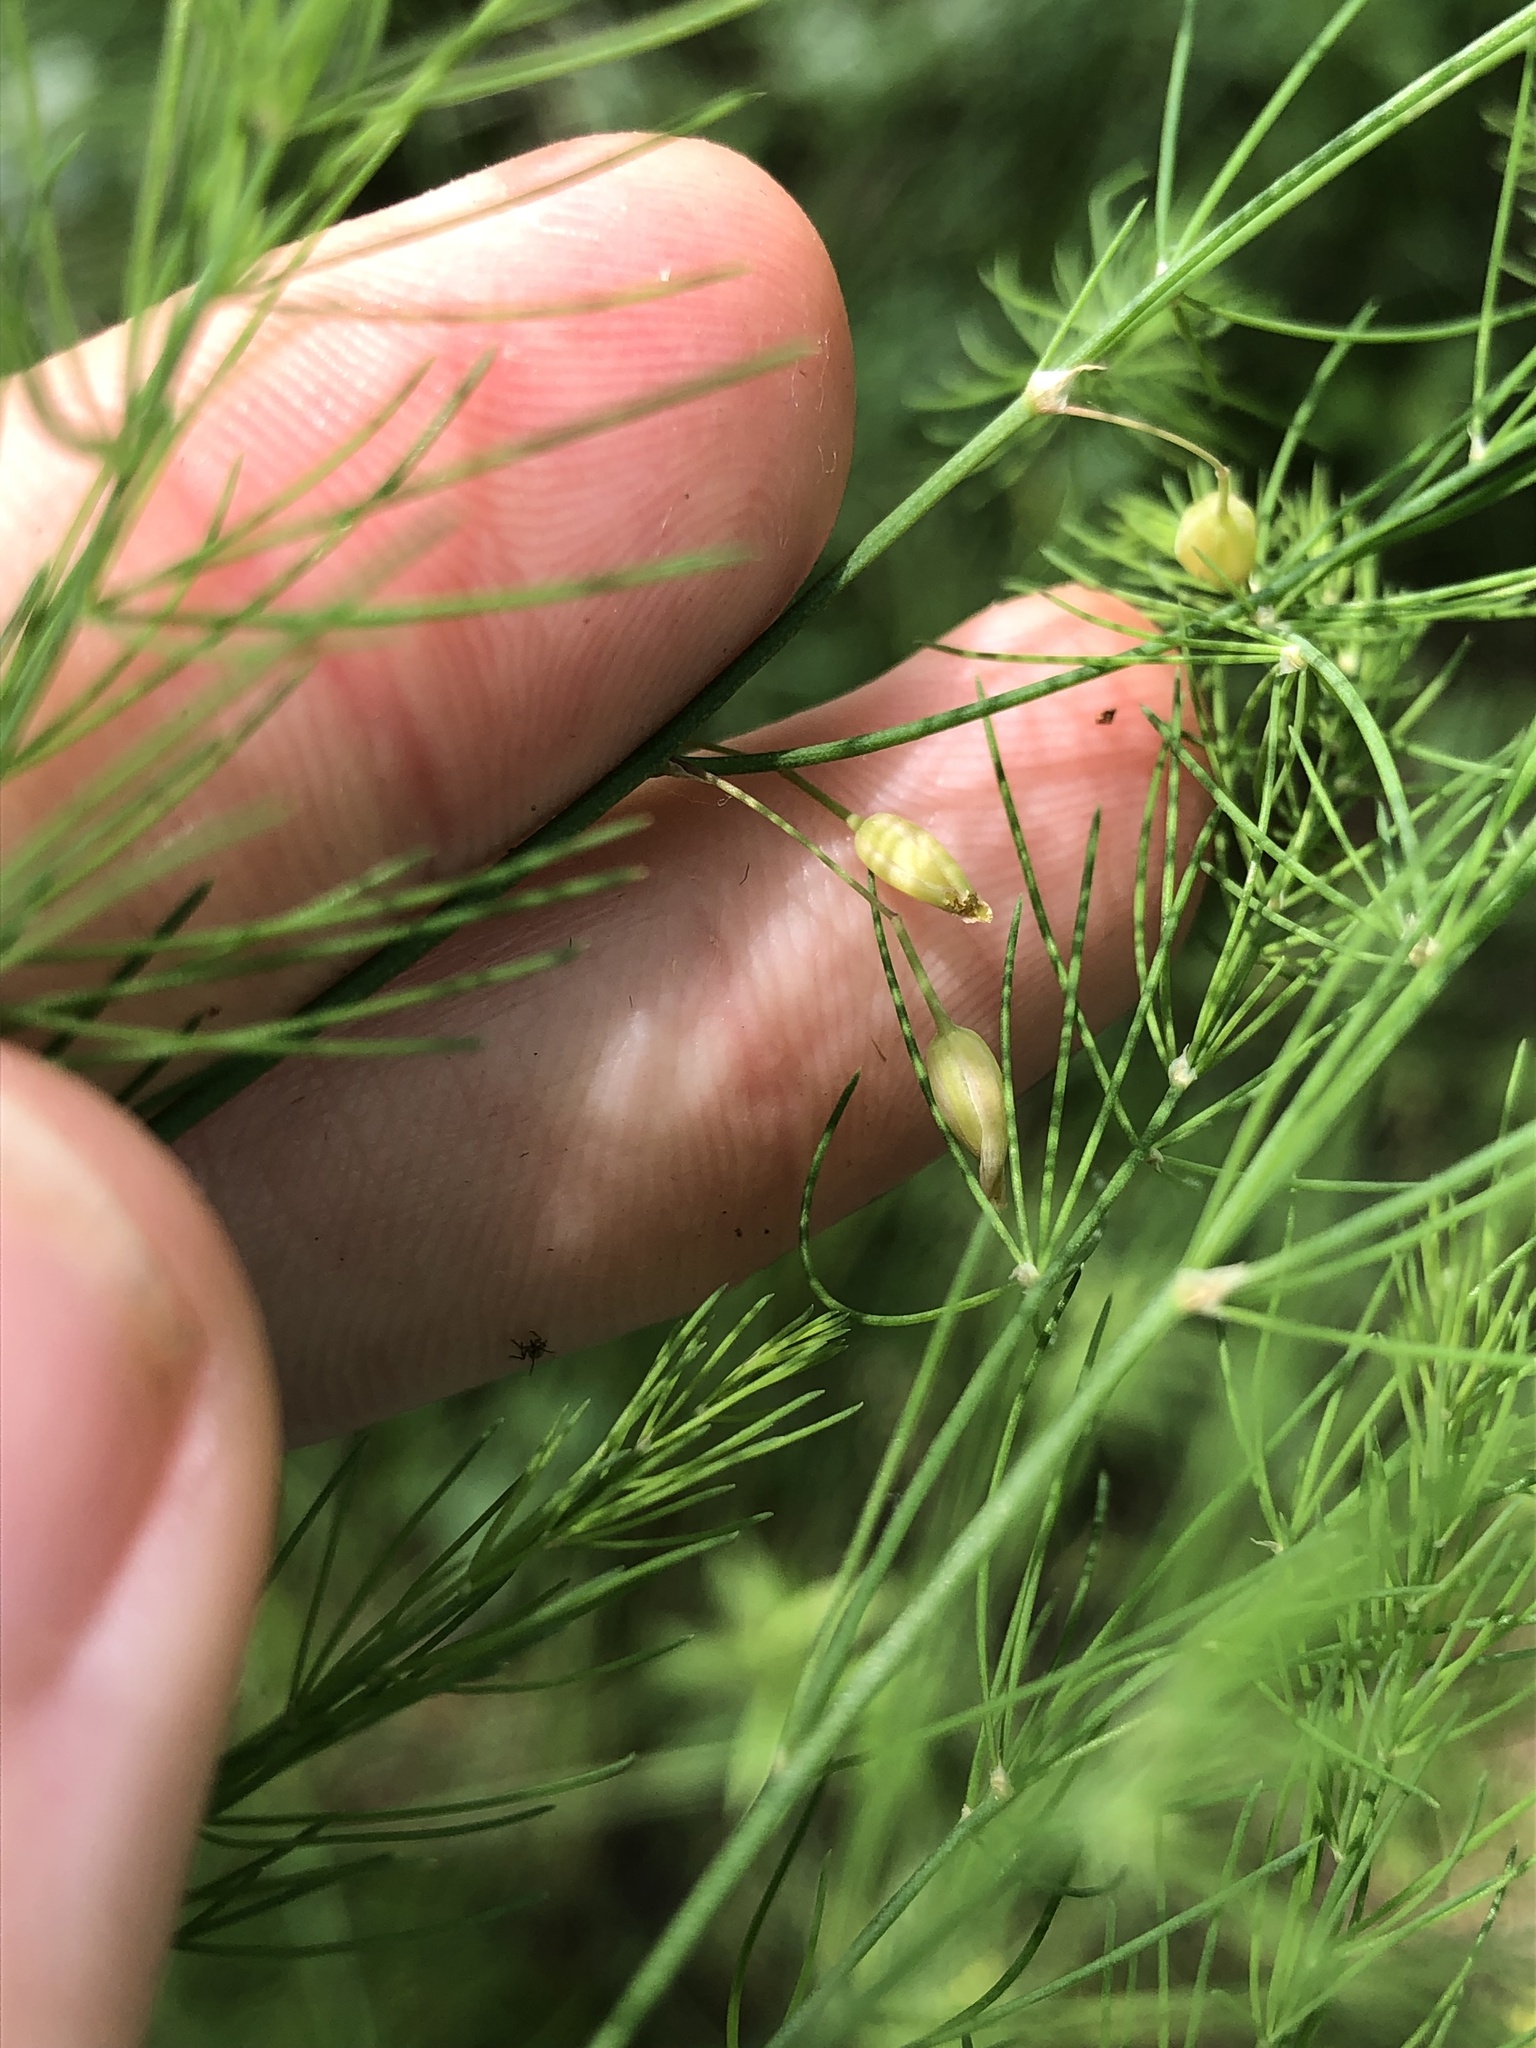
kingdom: Plantae
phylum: Tracheophyta
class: Liliopsida
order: Asparagales
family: Asparagaceae
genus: Asparagus
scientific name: Asparagus officinalis
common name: Garden asparagus
